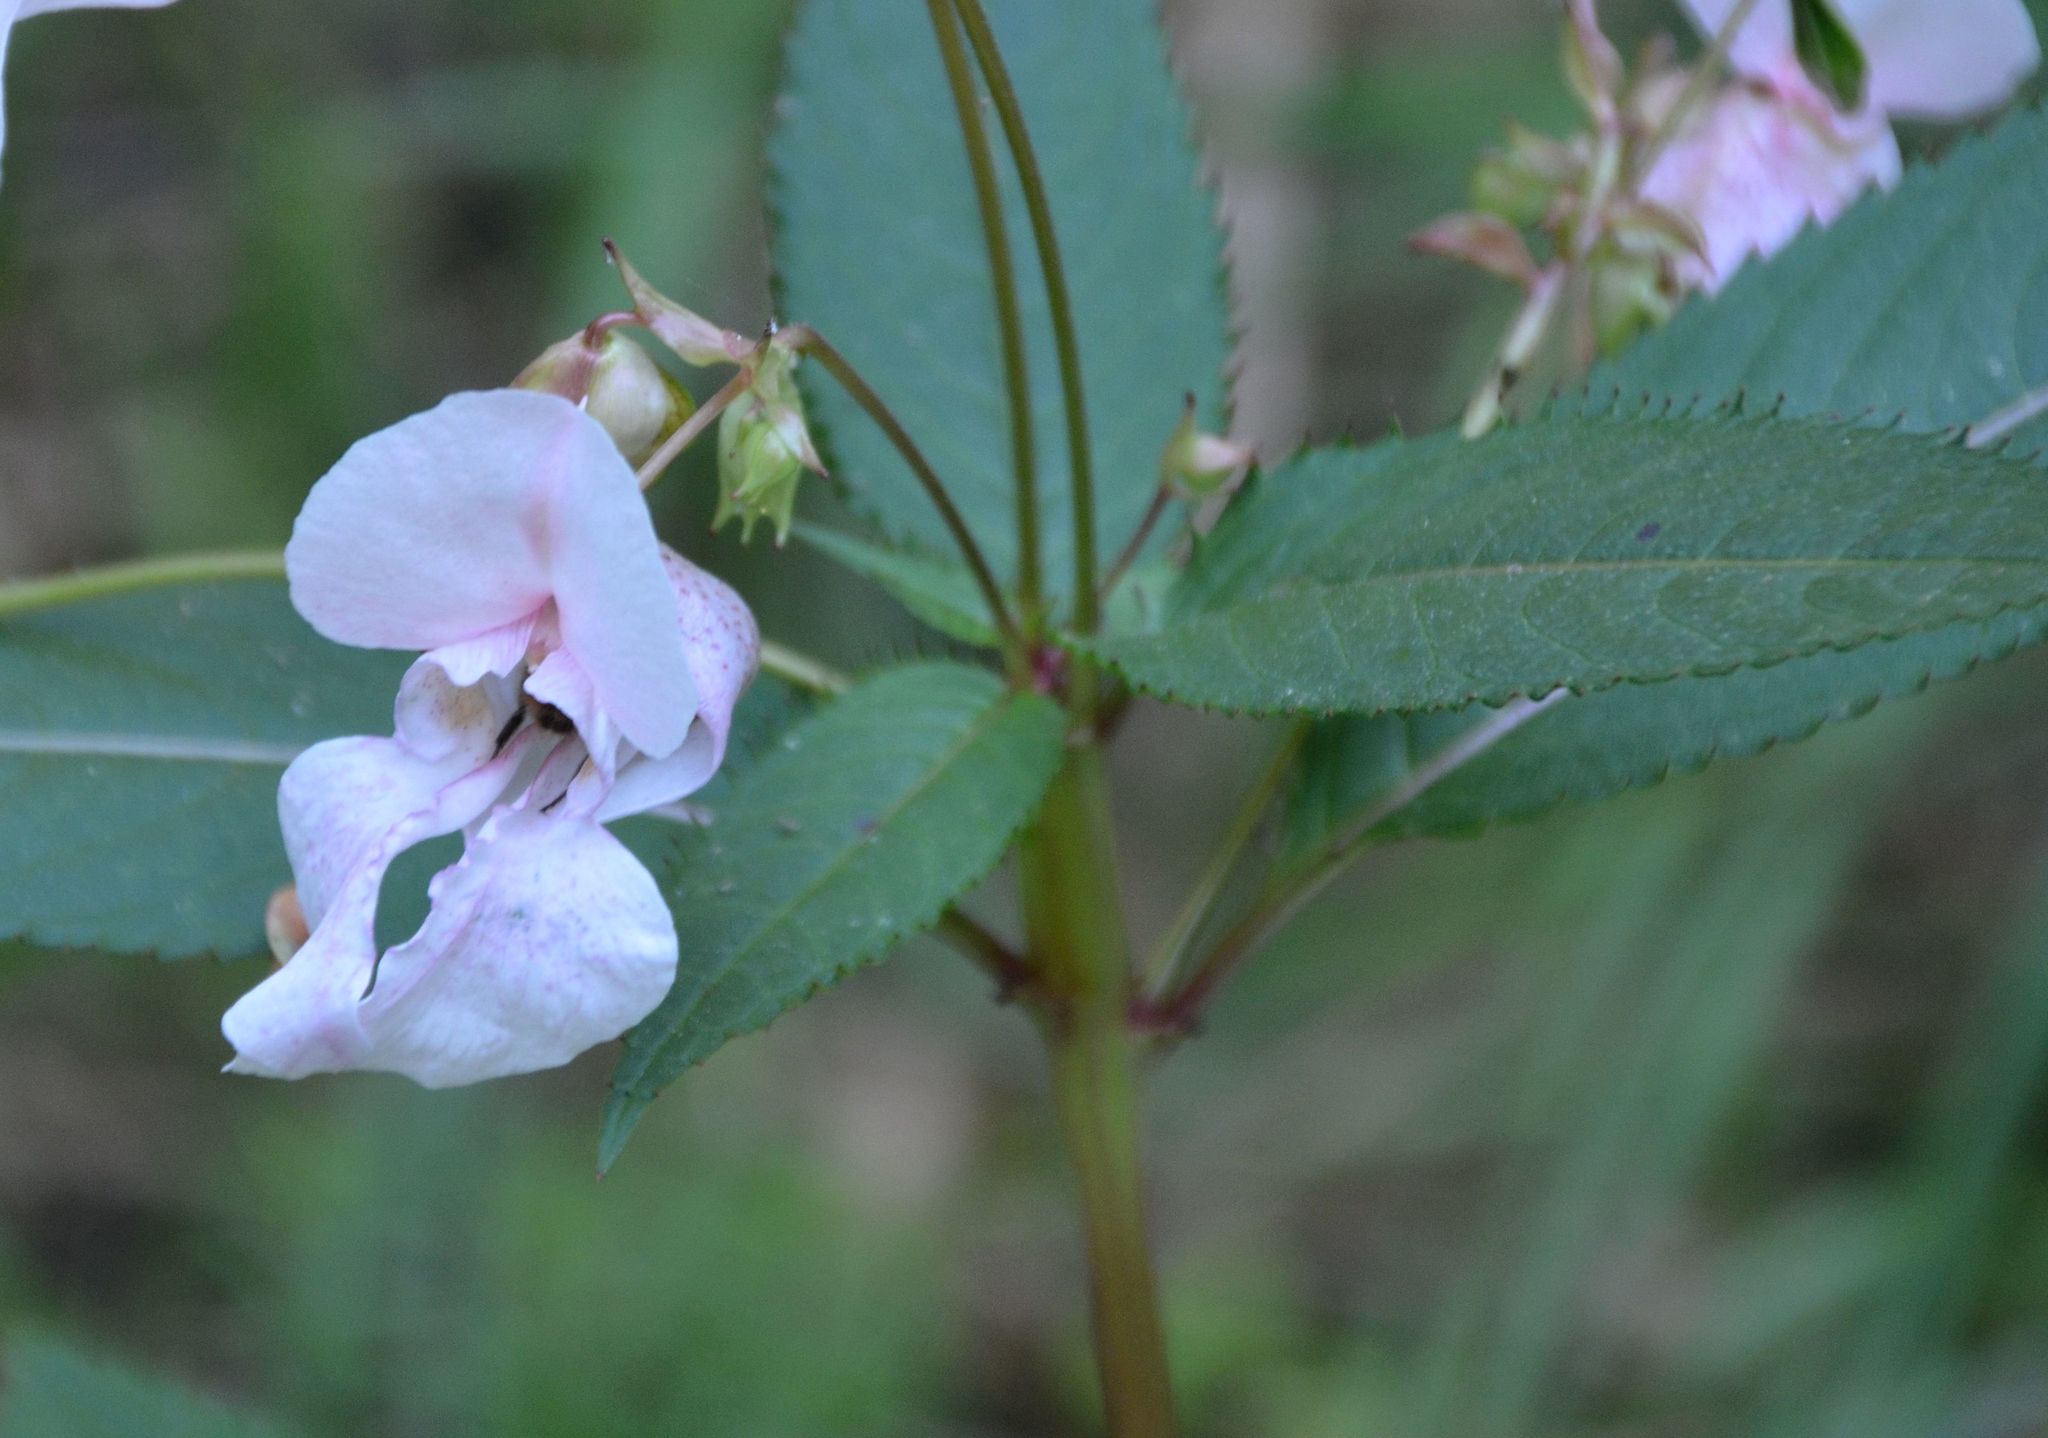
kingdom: Plantae
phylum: Tracheophyta
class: Magnoliopsida
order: Ericales
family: Balsaminaceae
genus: Impatiens
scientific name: Impatiens glandulifera
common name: Himalayan balsam
